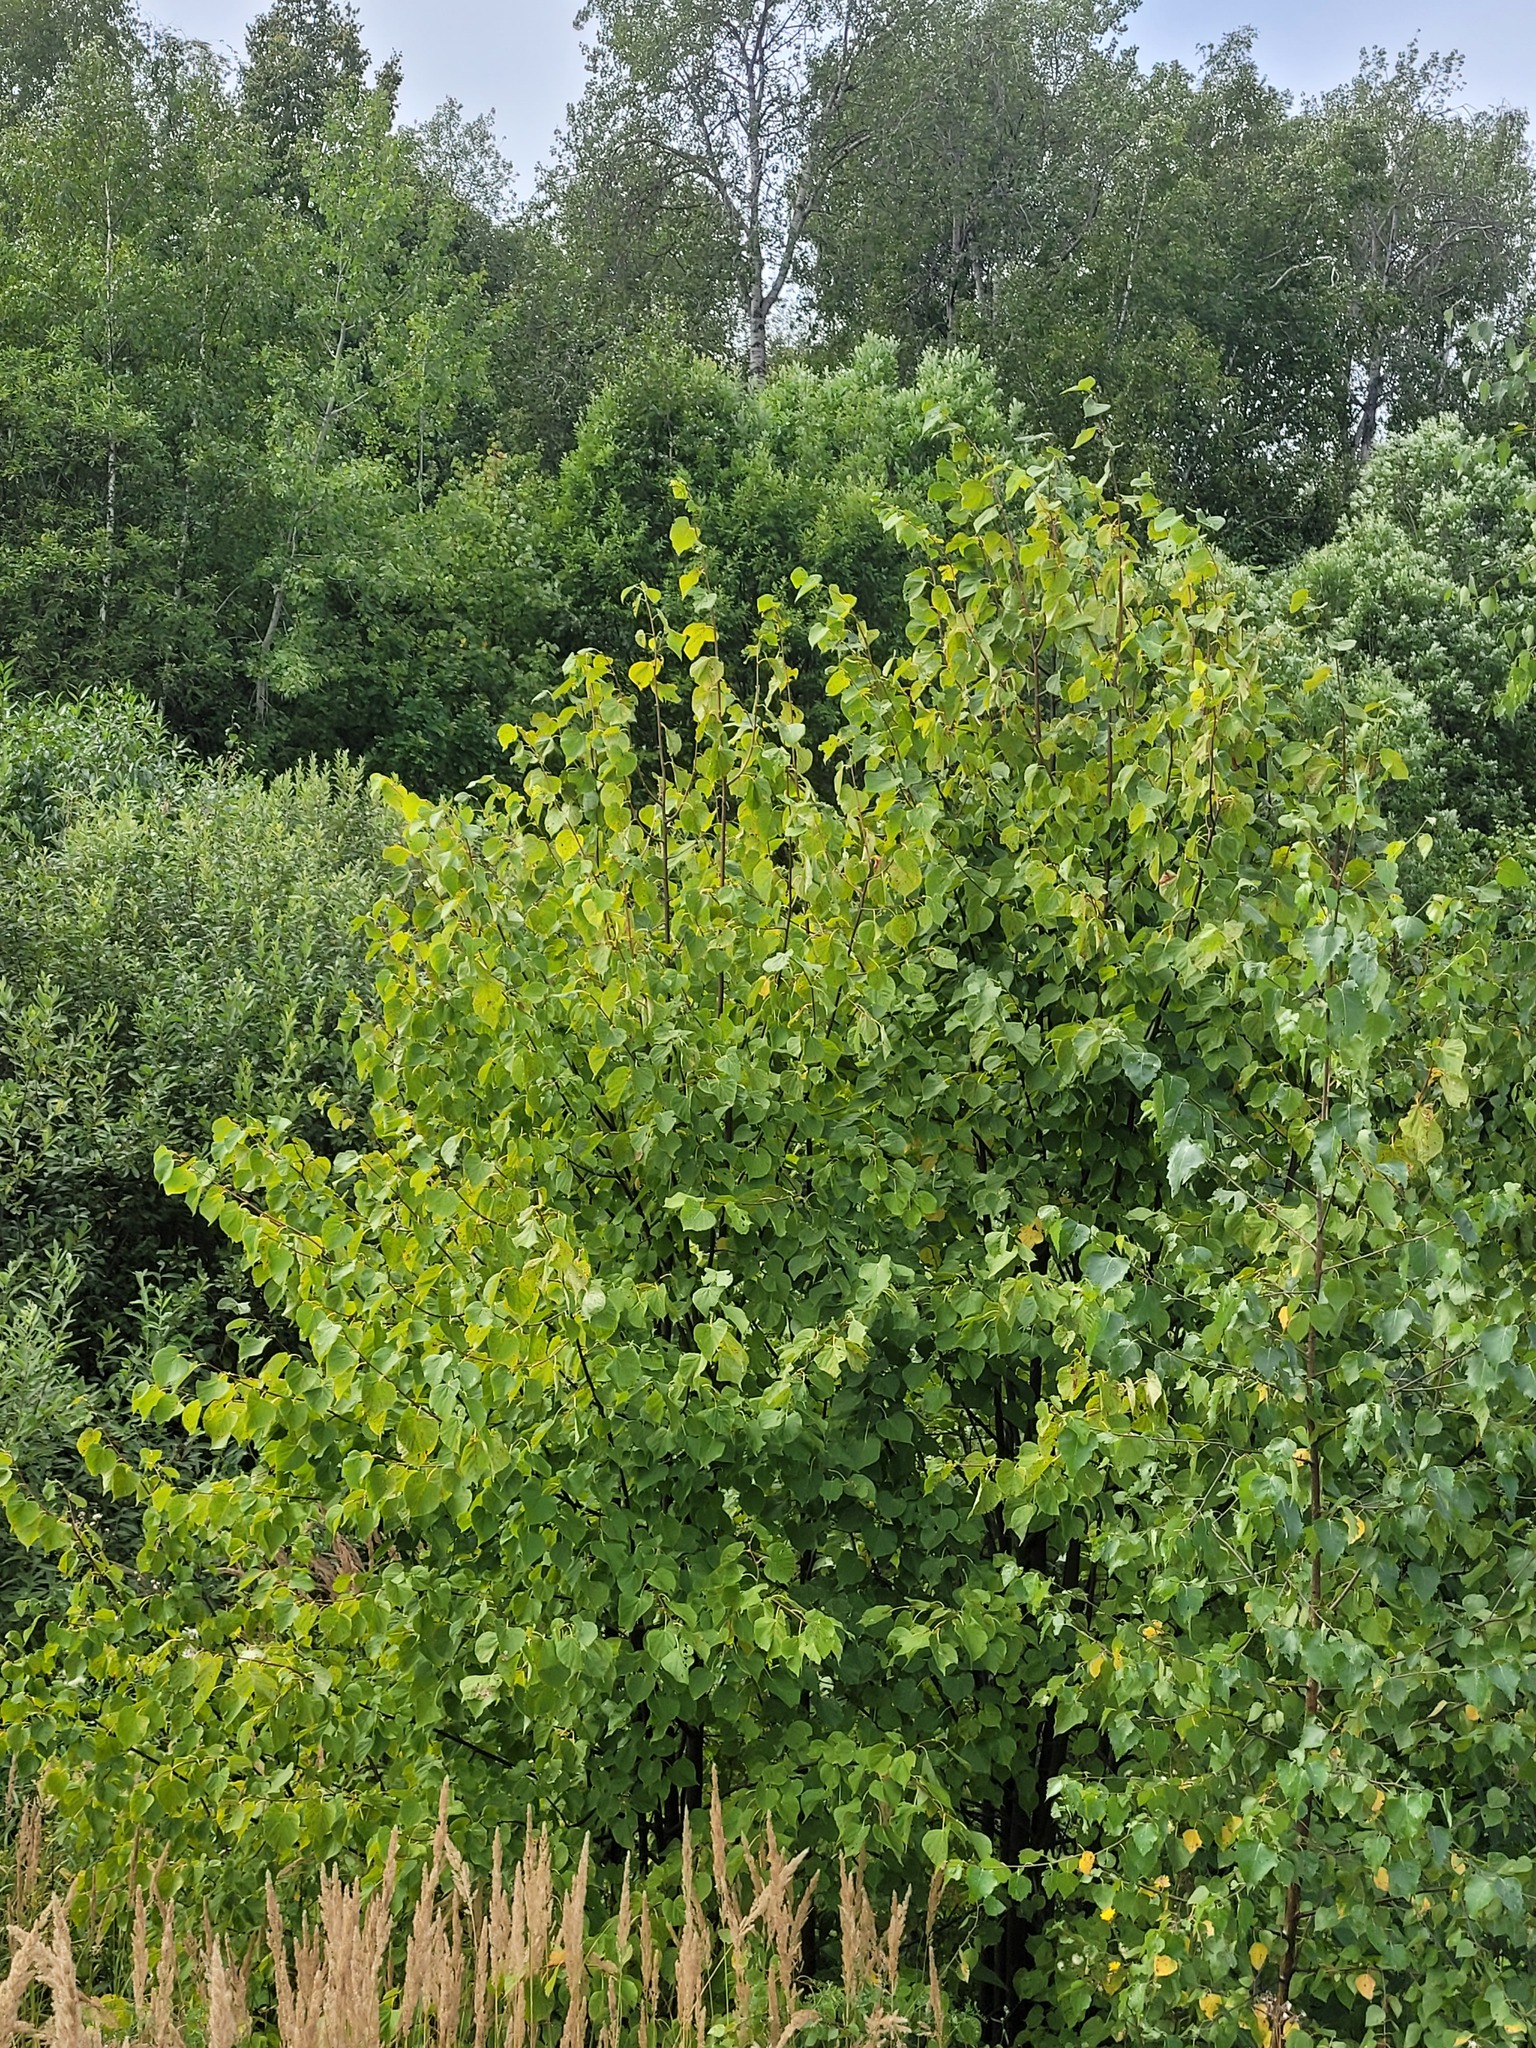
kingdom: Plantae
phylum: Tracheophyta
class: Magnoliopsida
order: Malvales
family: Malvaceae
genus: Tilia
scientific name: Tilia cordata
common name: Small-leaved lime
